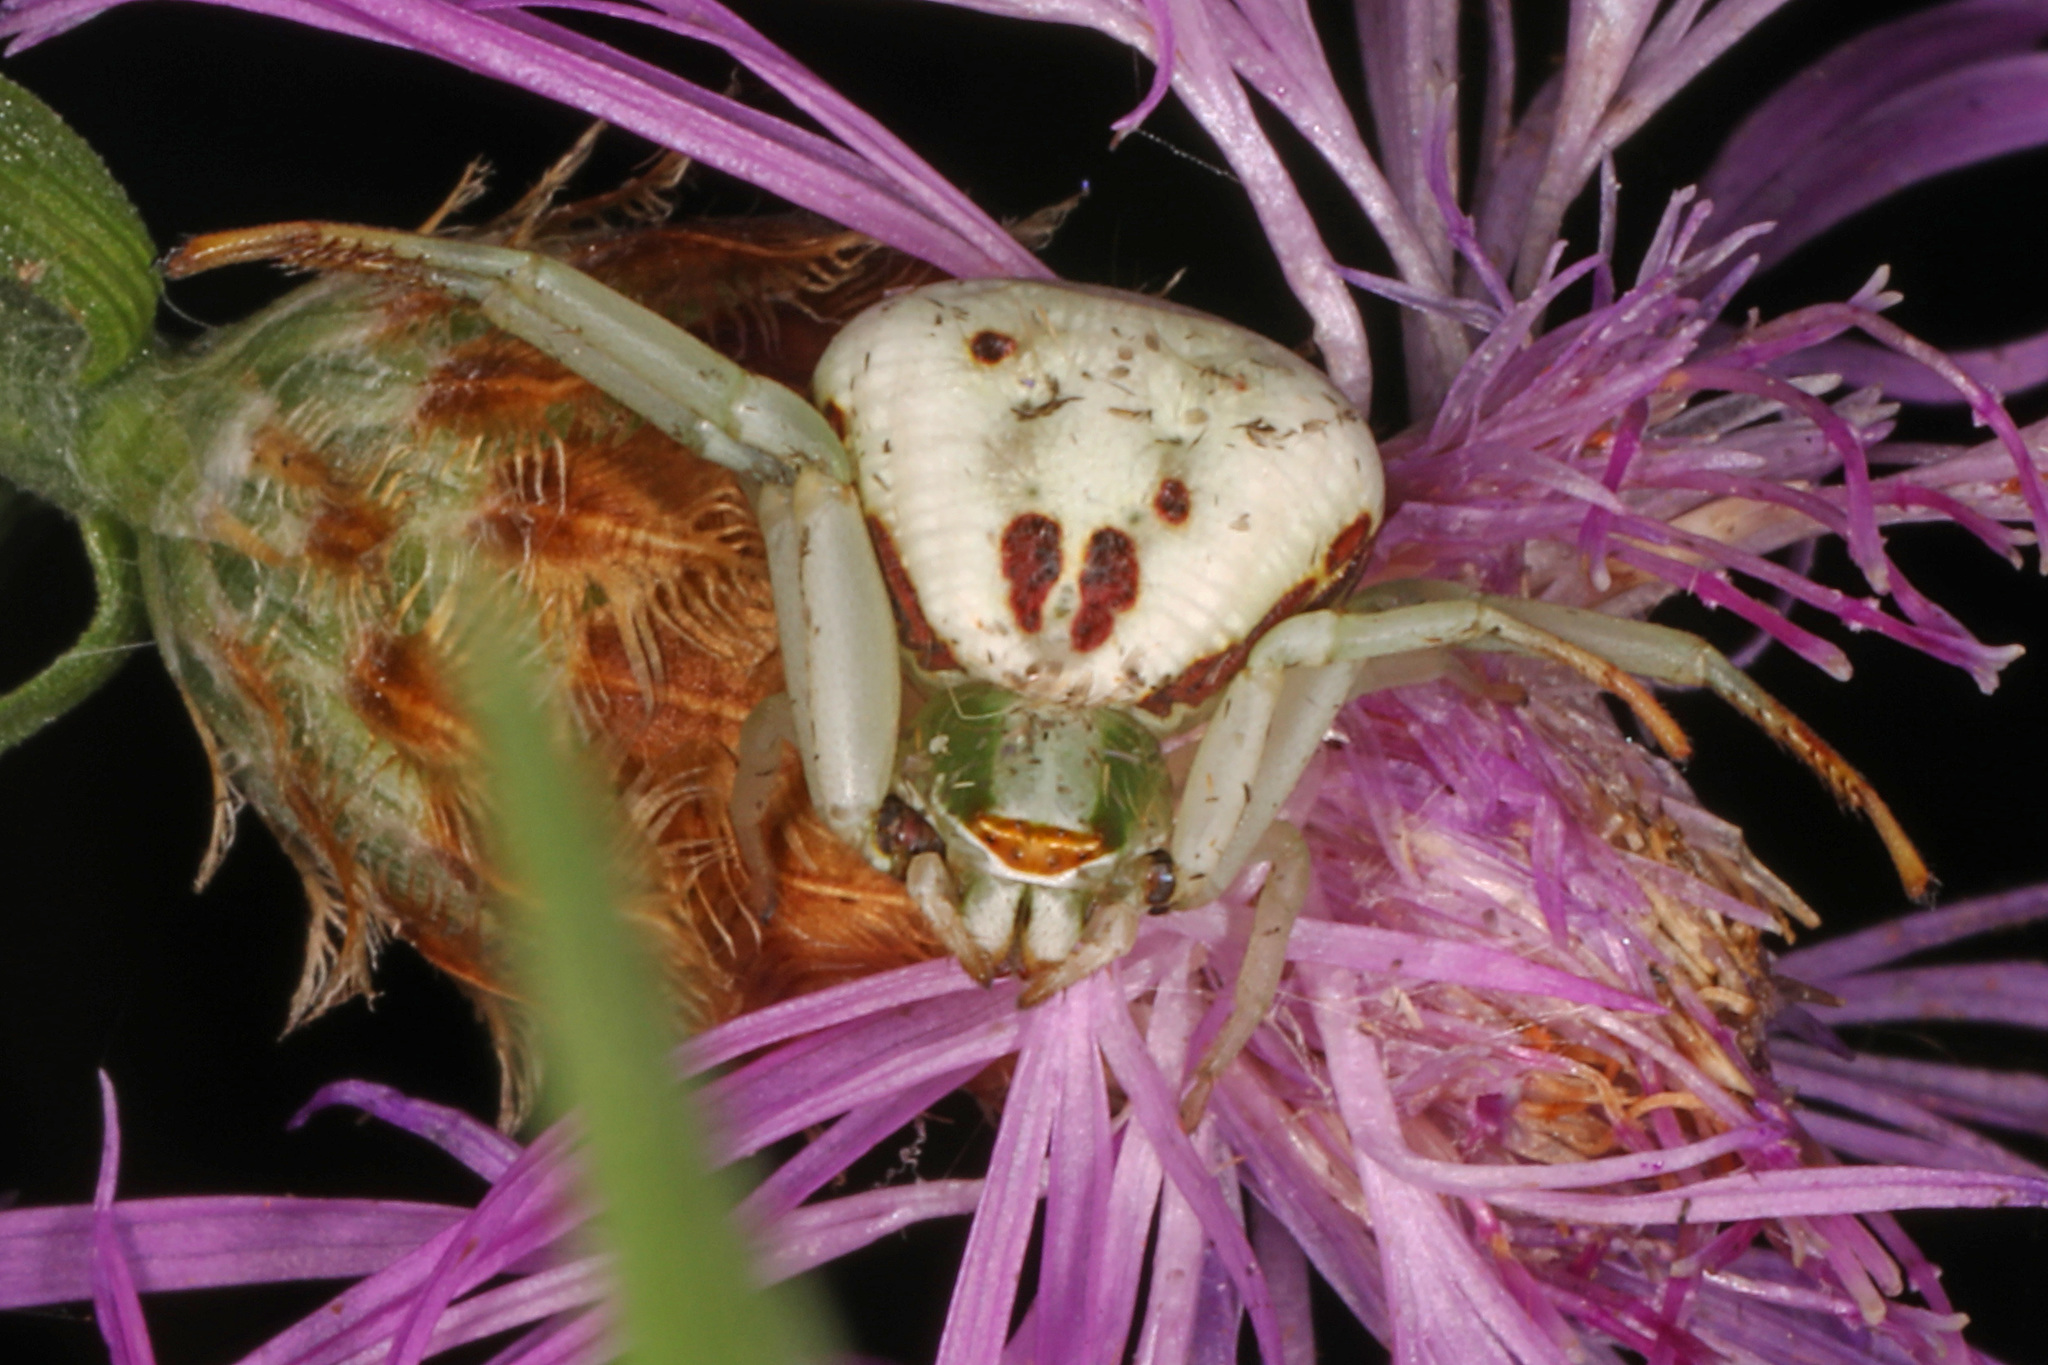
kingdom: Animalia
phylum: Arthropoda
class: Arachnida
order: Araneae
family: Thomisidae
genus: Misumenoides
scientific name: Misumenoides formosipes
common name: White-banded crab spider
